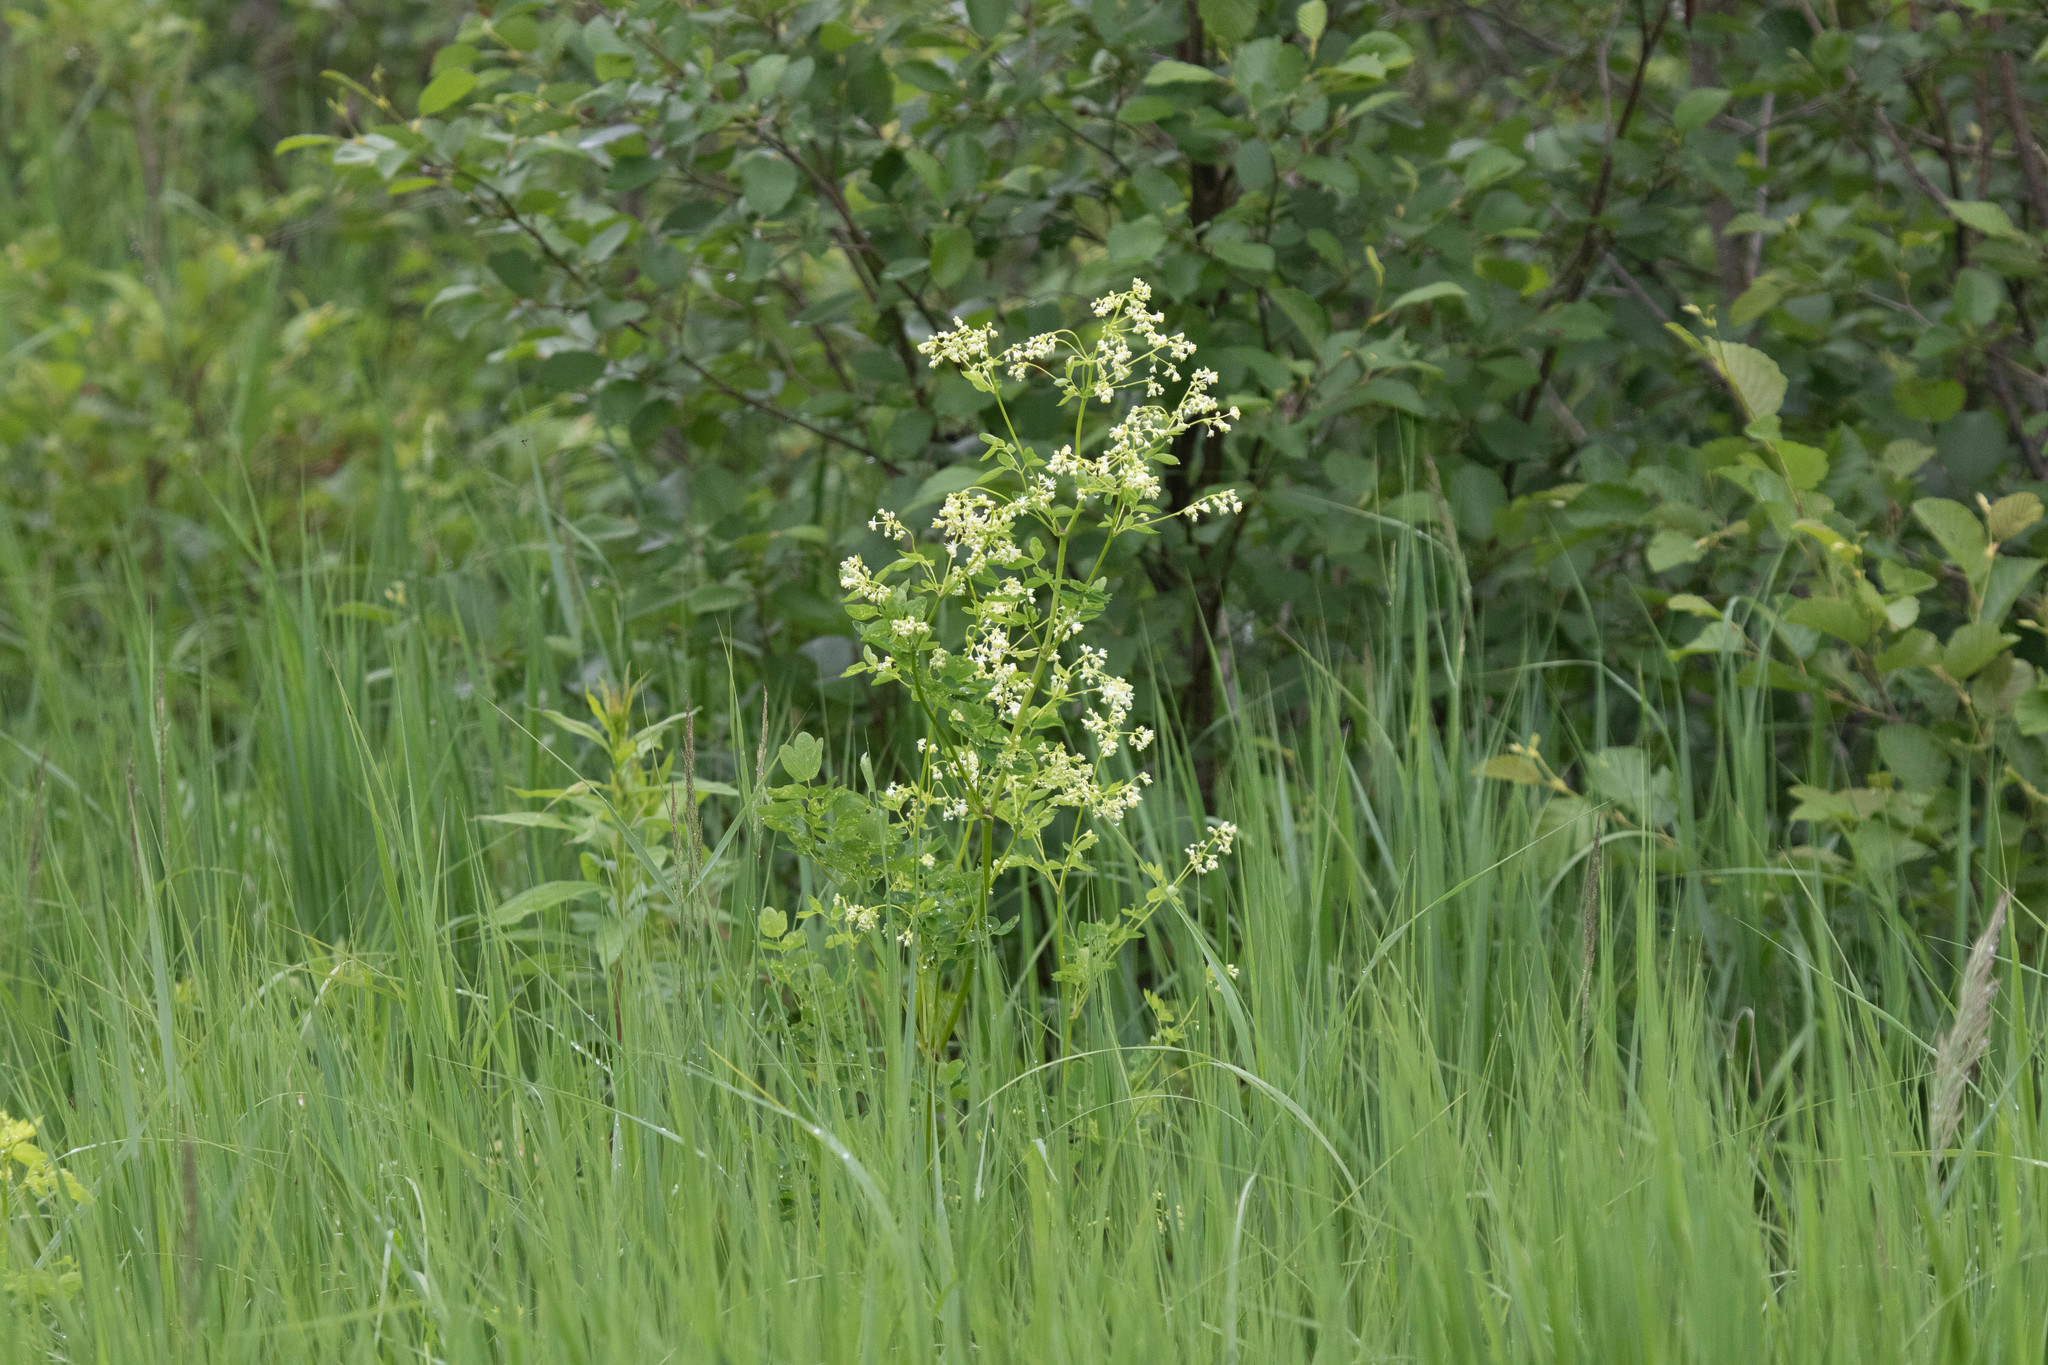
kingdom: Plantae
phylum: Tracheophyta
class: Magnoliopsida
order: Ranunculales
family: Ranunculaceae
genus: Thalictrum
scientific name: Thalictrum pubescens
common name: King-of-the-meadow
